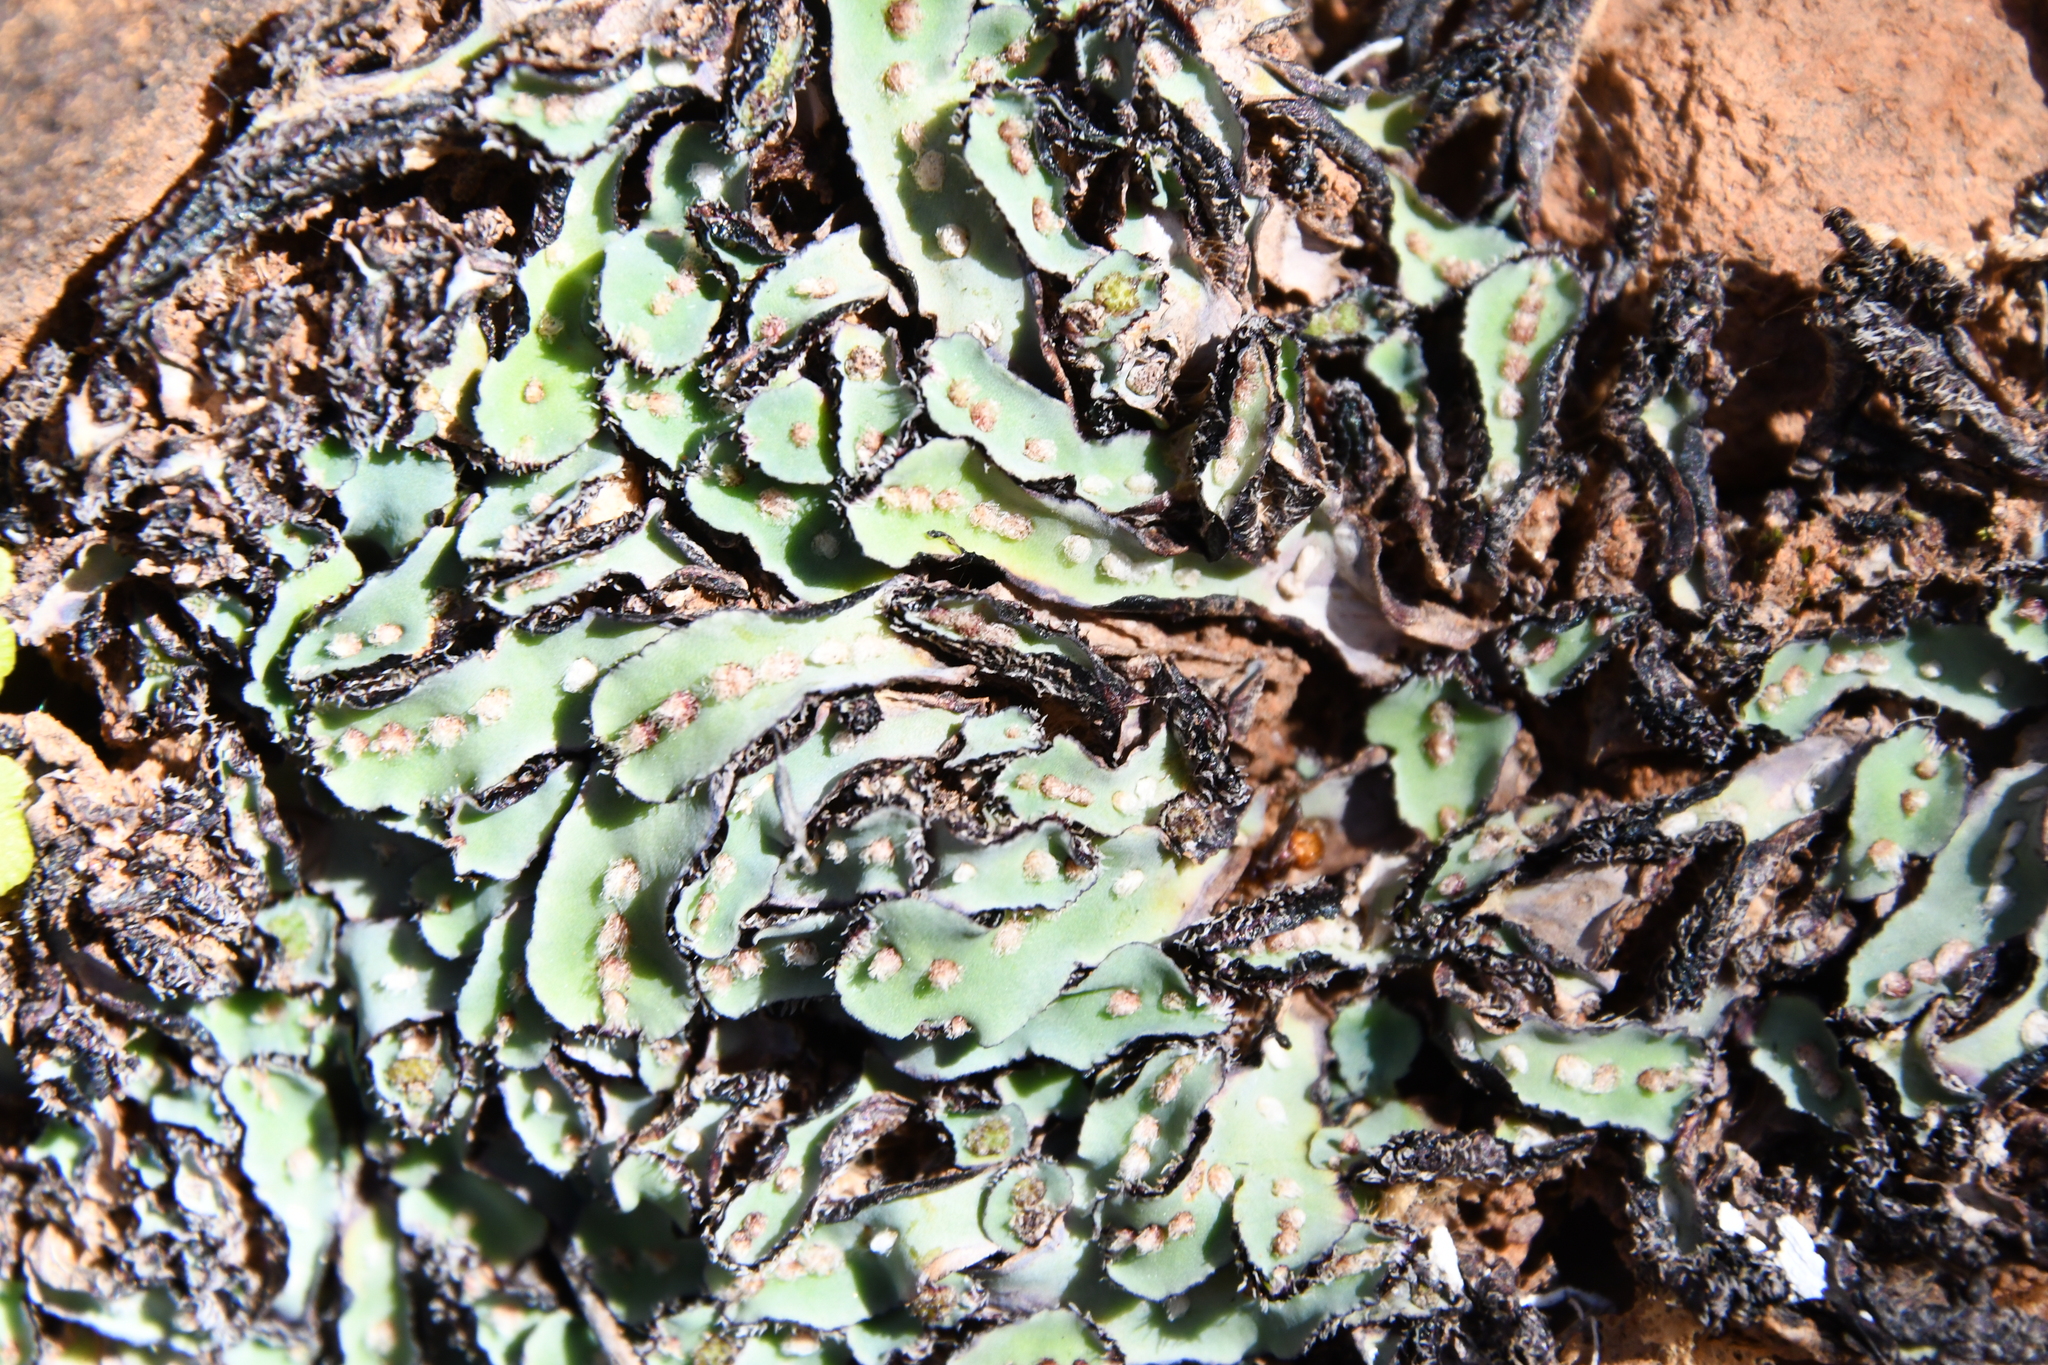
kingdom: Plantae
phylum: Marchantiophyta
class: Marchantiopsida
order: Marchantiales
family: Aytoniaceae
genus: Plagiochasma
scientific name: Plagiochasma rupestre
